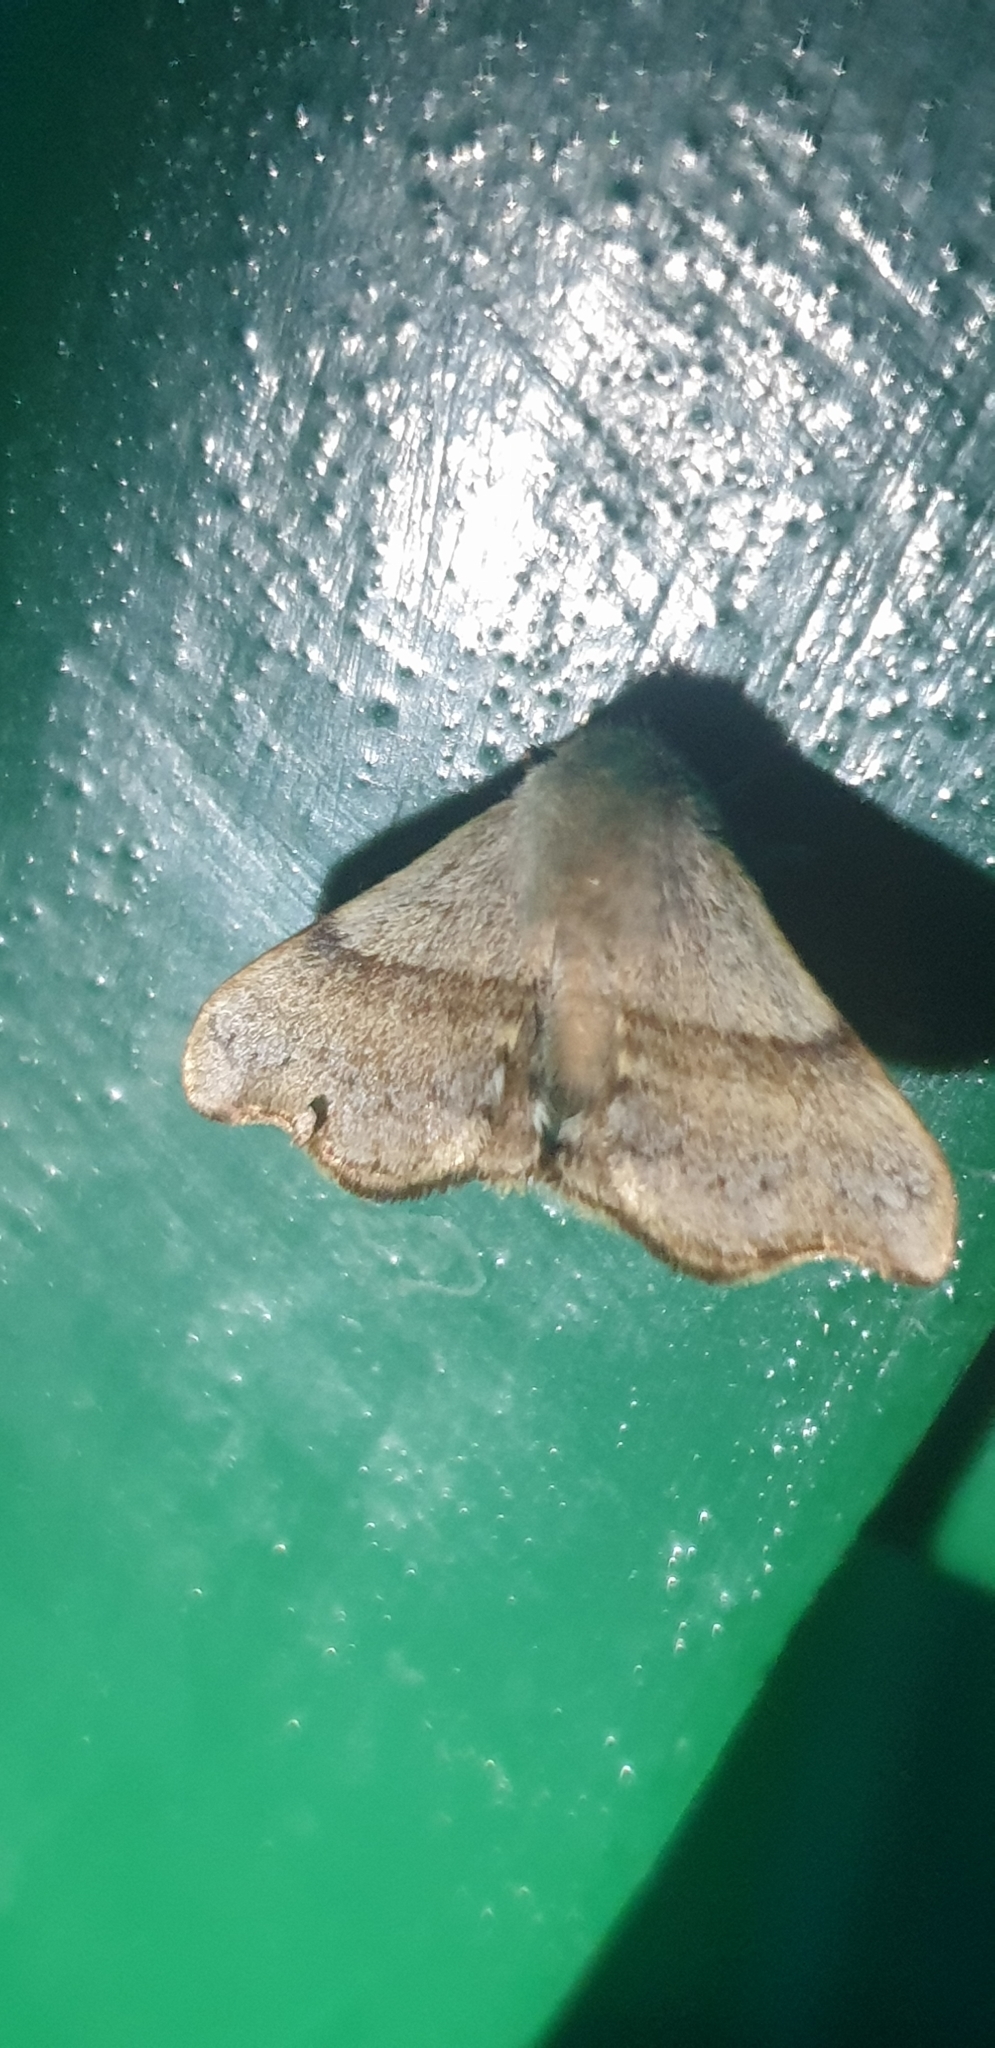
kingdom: Animalia
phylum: Arthropoda
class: Insecta
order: Lepidoptera
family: Eupterotidae
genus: Panacela
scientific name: Panacela syntropha
